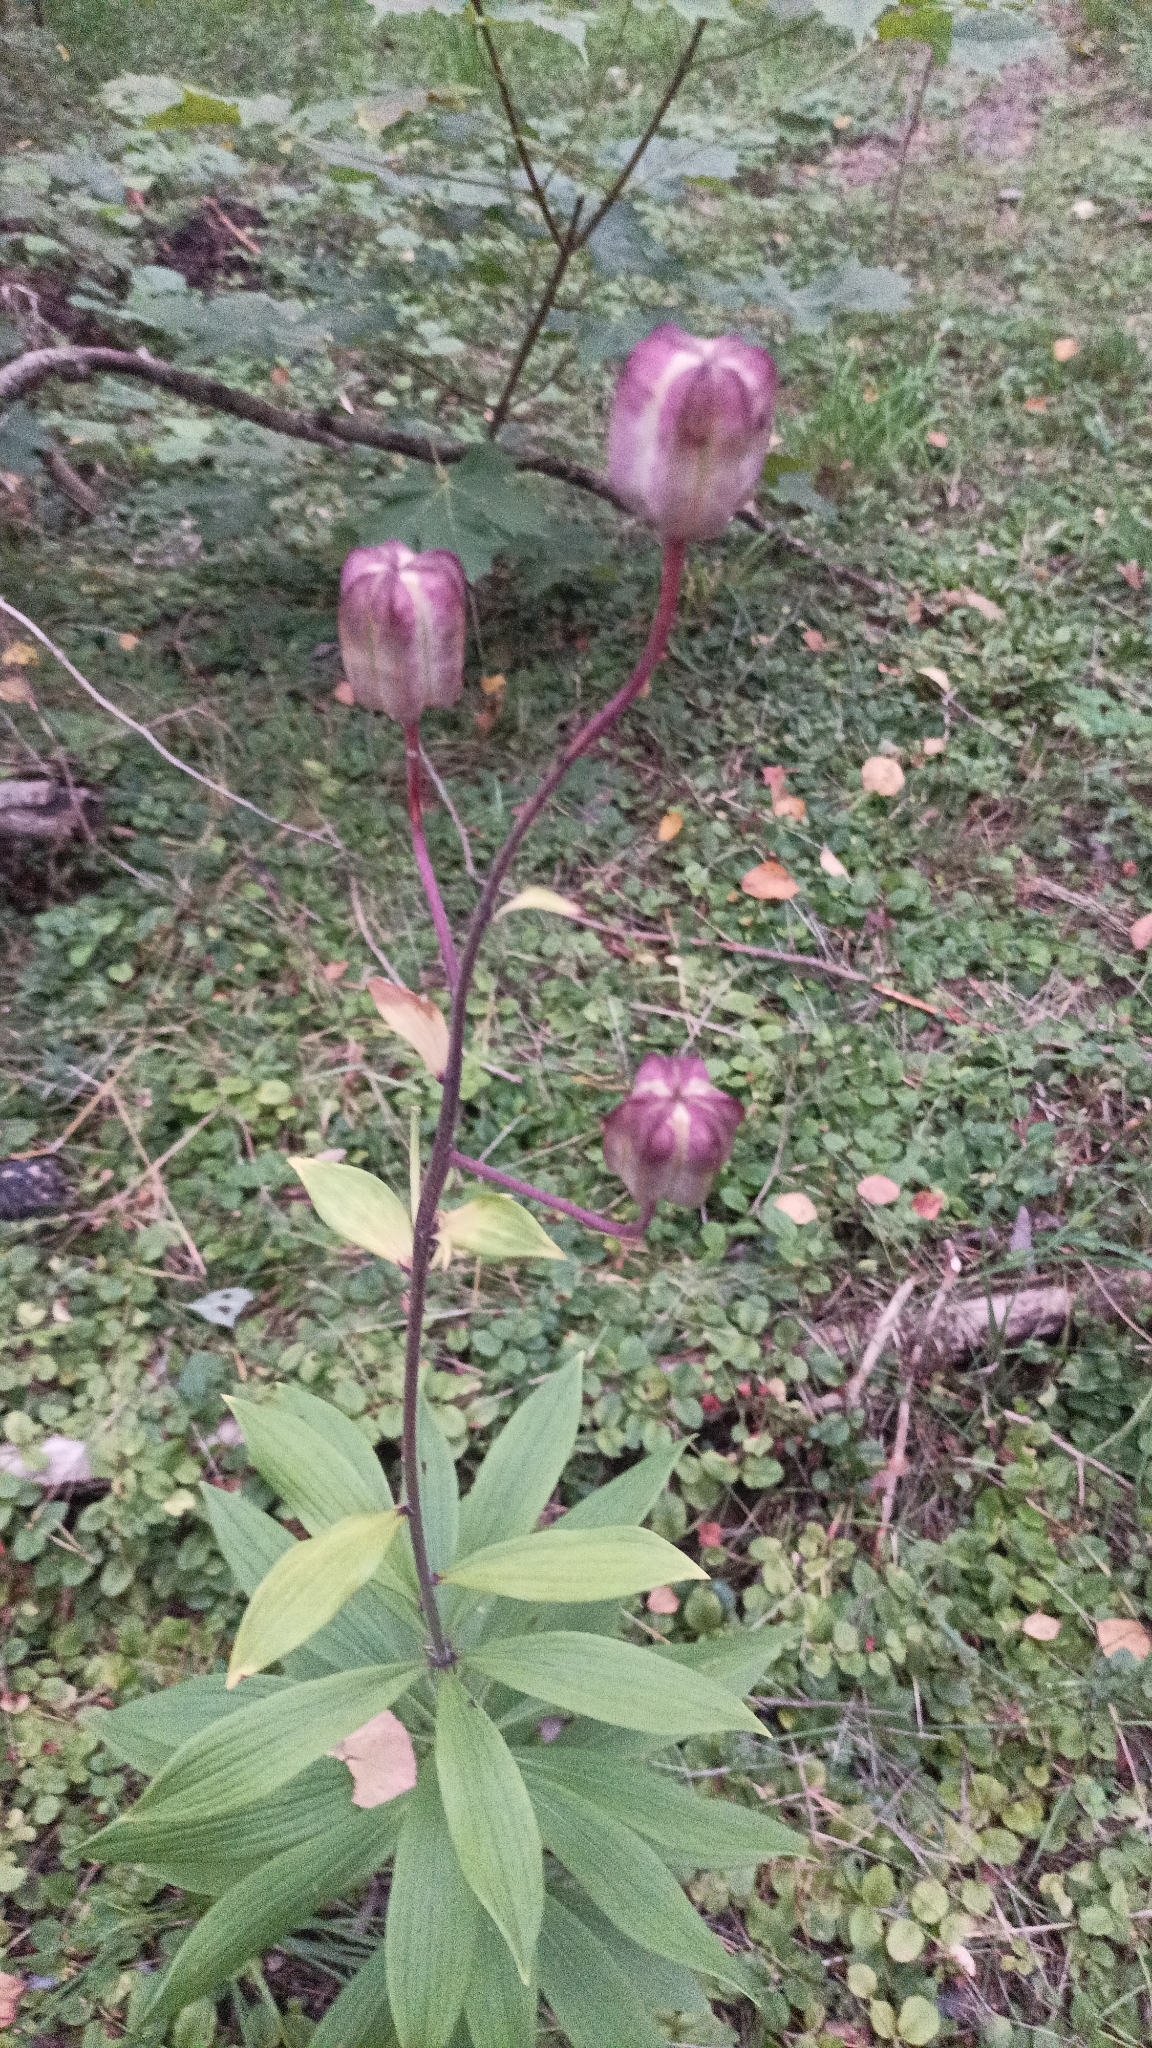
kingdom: Plantae
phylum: Tracheophyta
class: Liliopsida
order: Liliales
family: Liliaceae
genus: Lilium
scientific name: Lilium martagon
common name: Martagon lily
